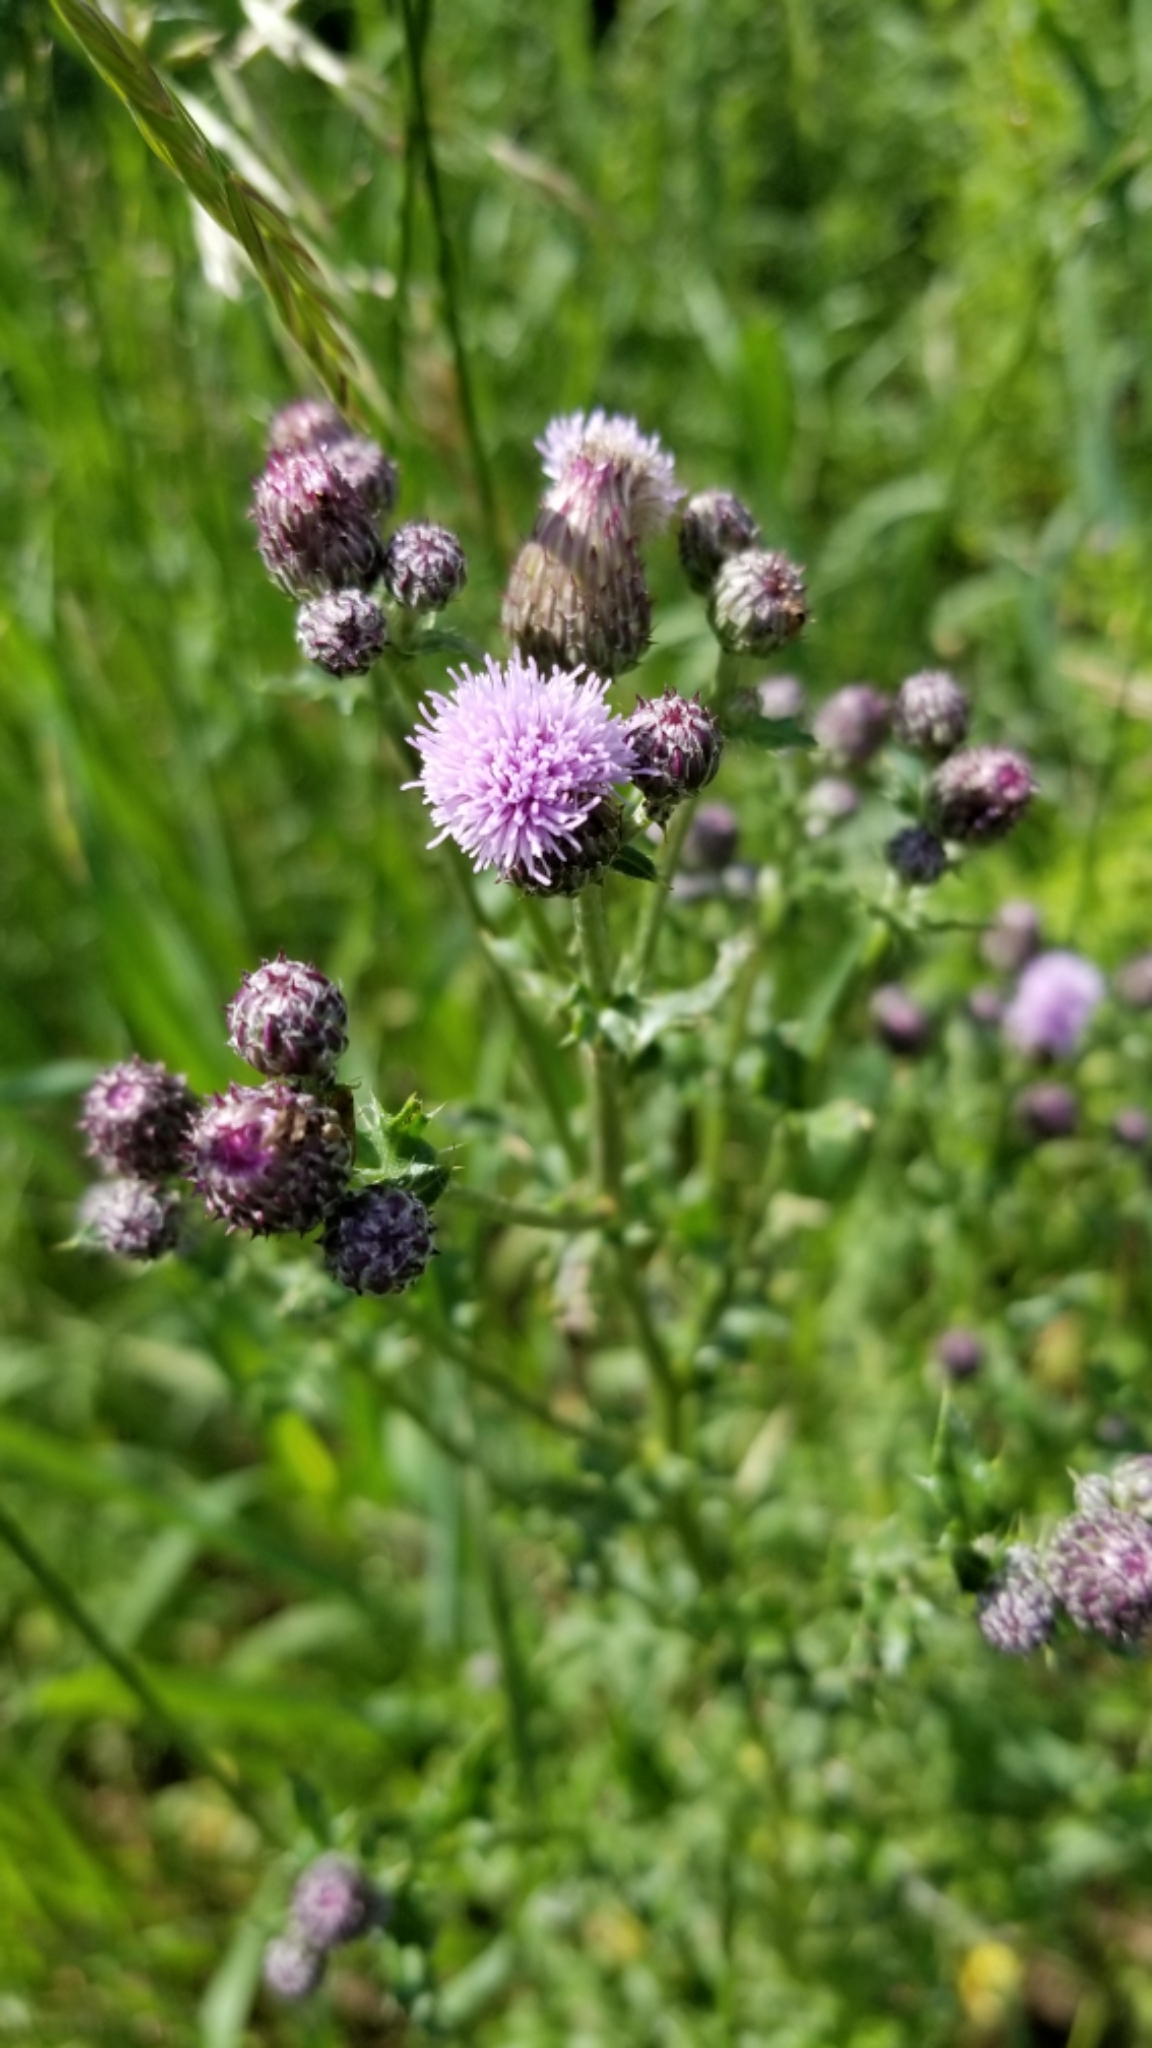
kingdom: Plantae
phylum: Tracheophyta
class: Magnoliopsida
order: Asterales
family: Asteraceae
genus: Cirsium
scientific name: Cirsium arvense
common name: Creeping thistle
